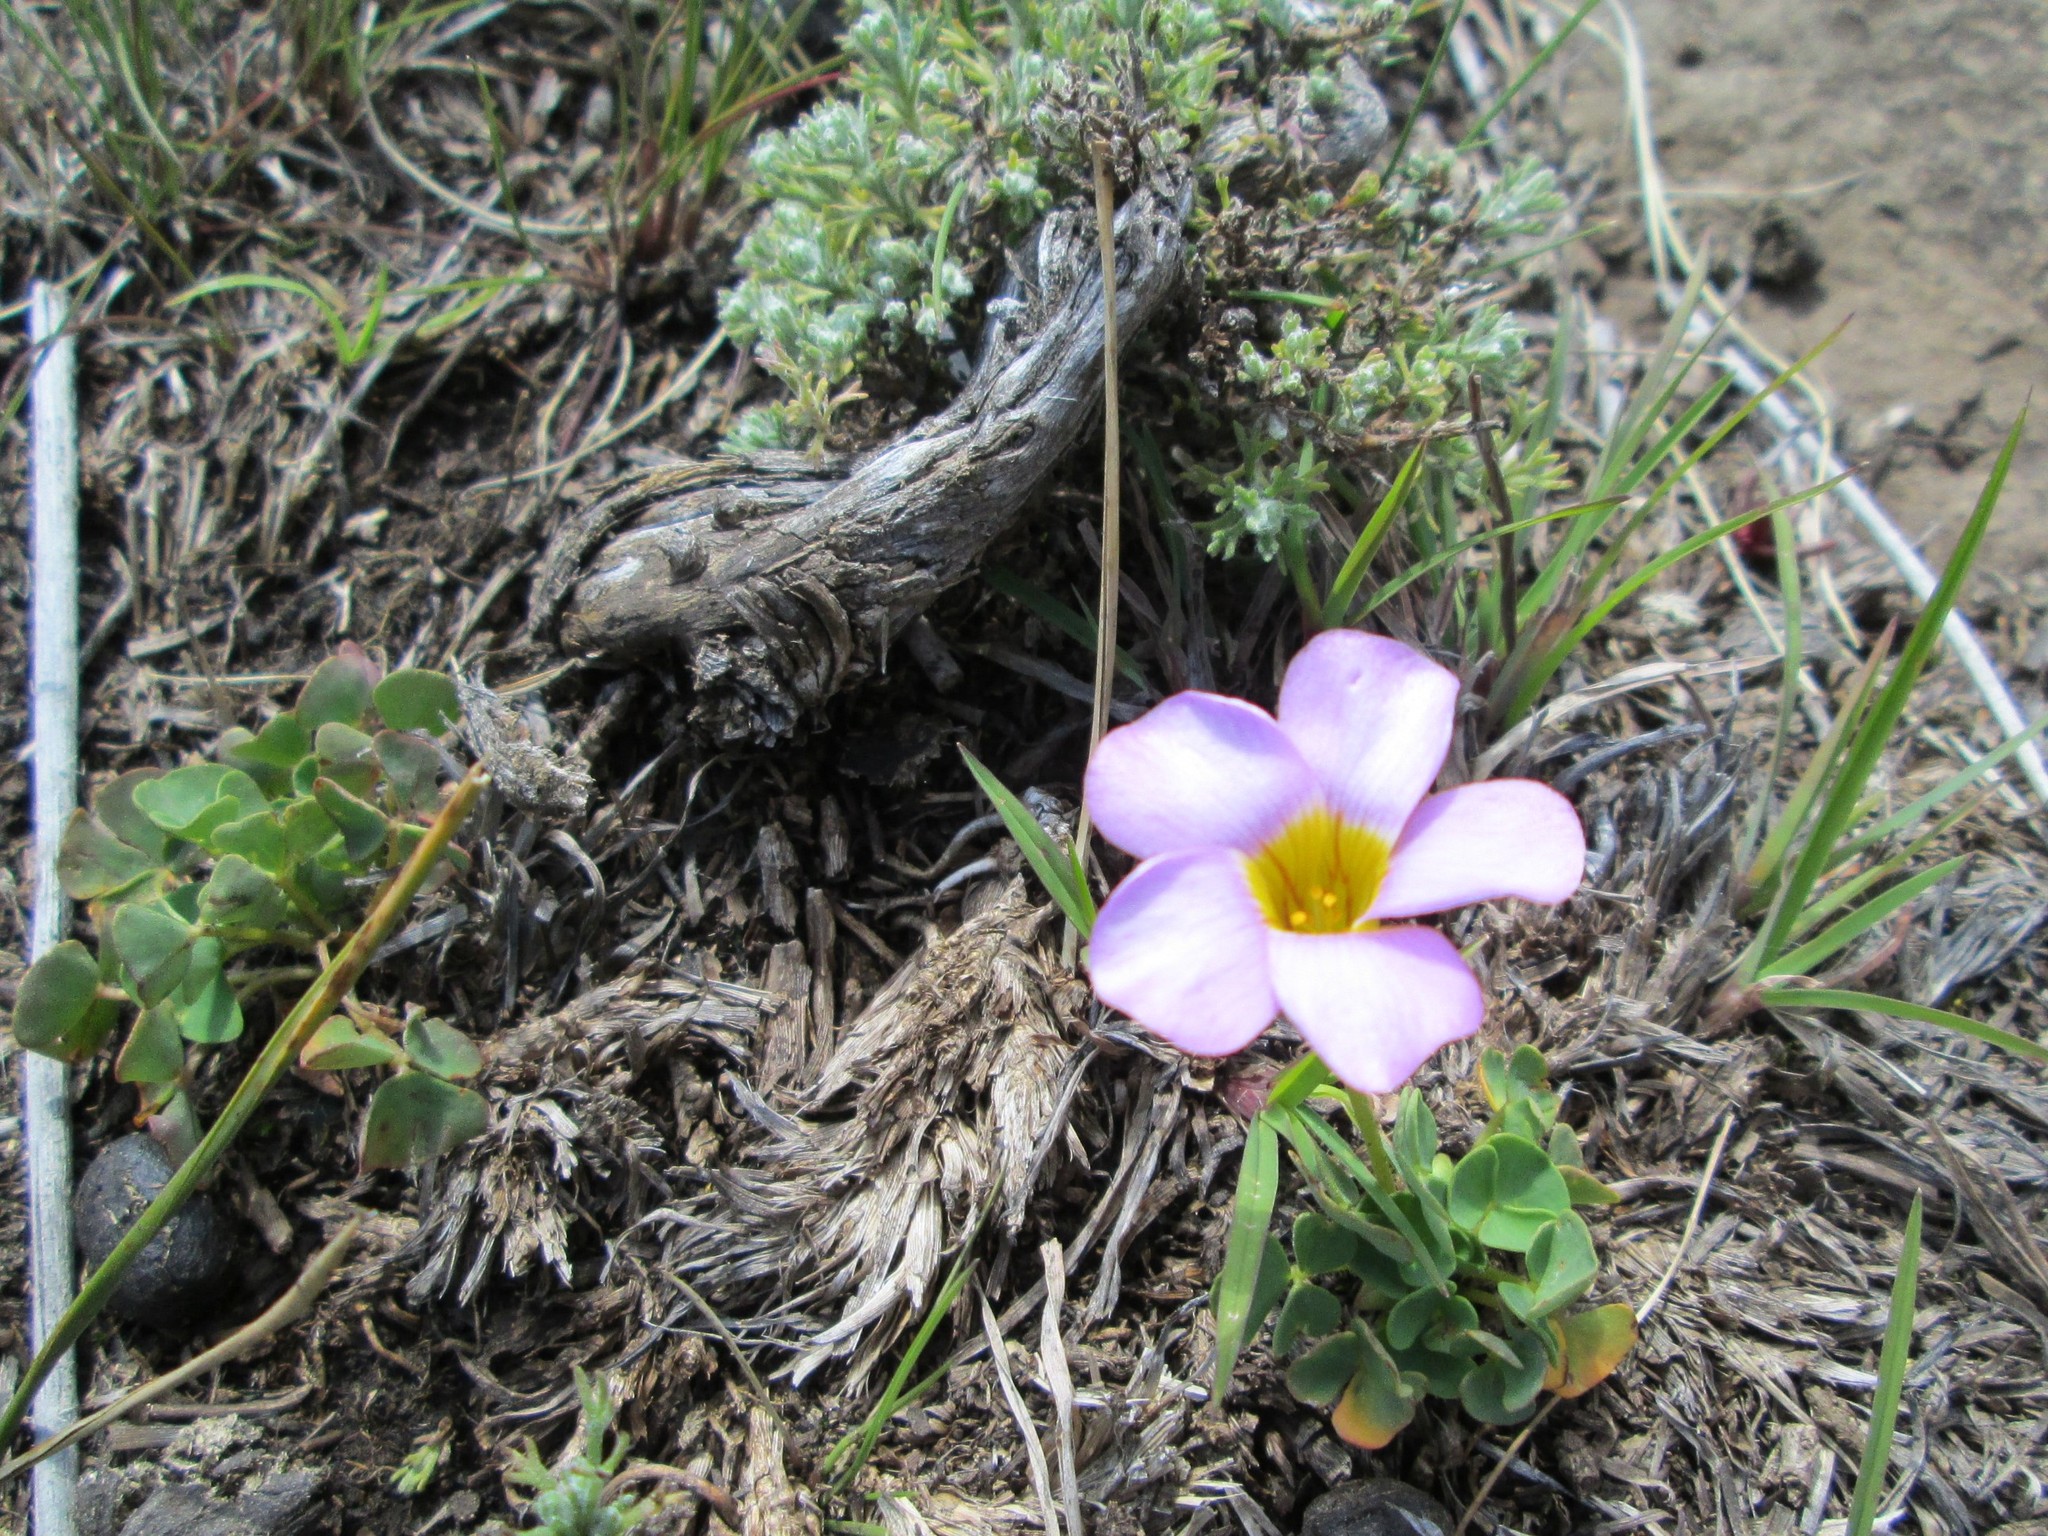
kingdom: Plantae
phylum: Tracheophyta
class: Magnoliopsida
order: Oxalidales
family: Oxalidaceae
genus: Oxalis
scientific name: Oxalis obliquifolia
